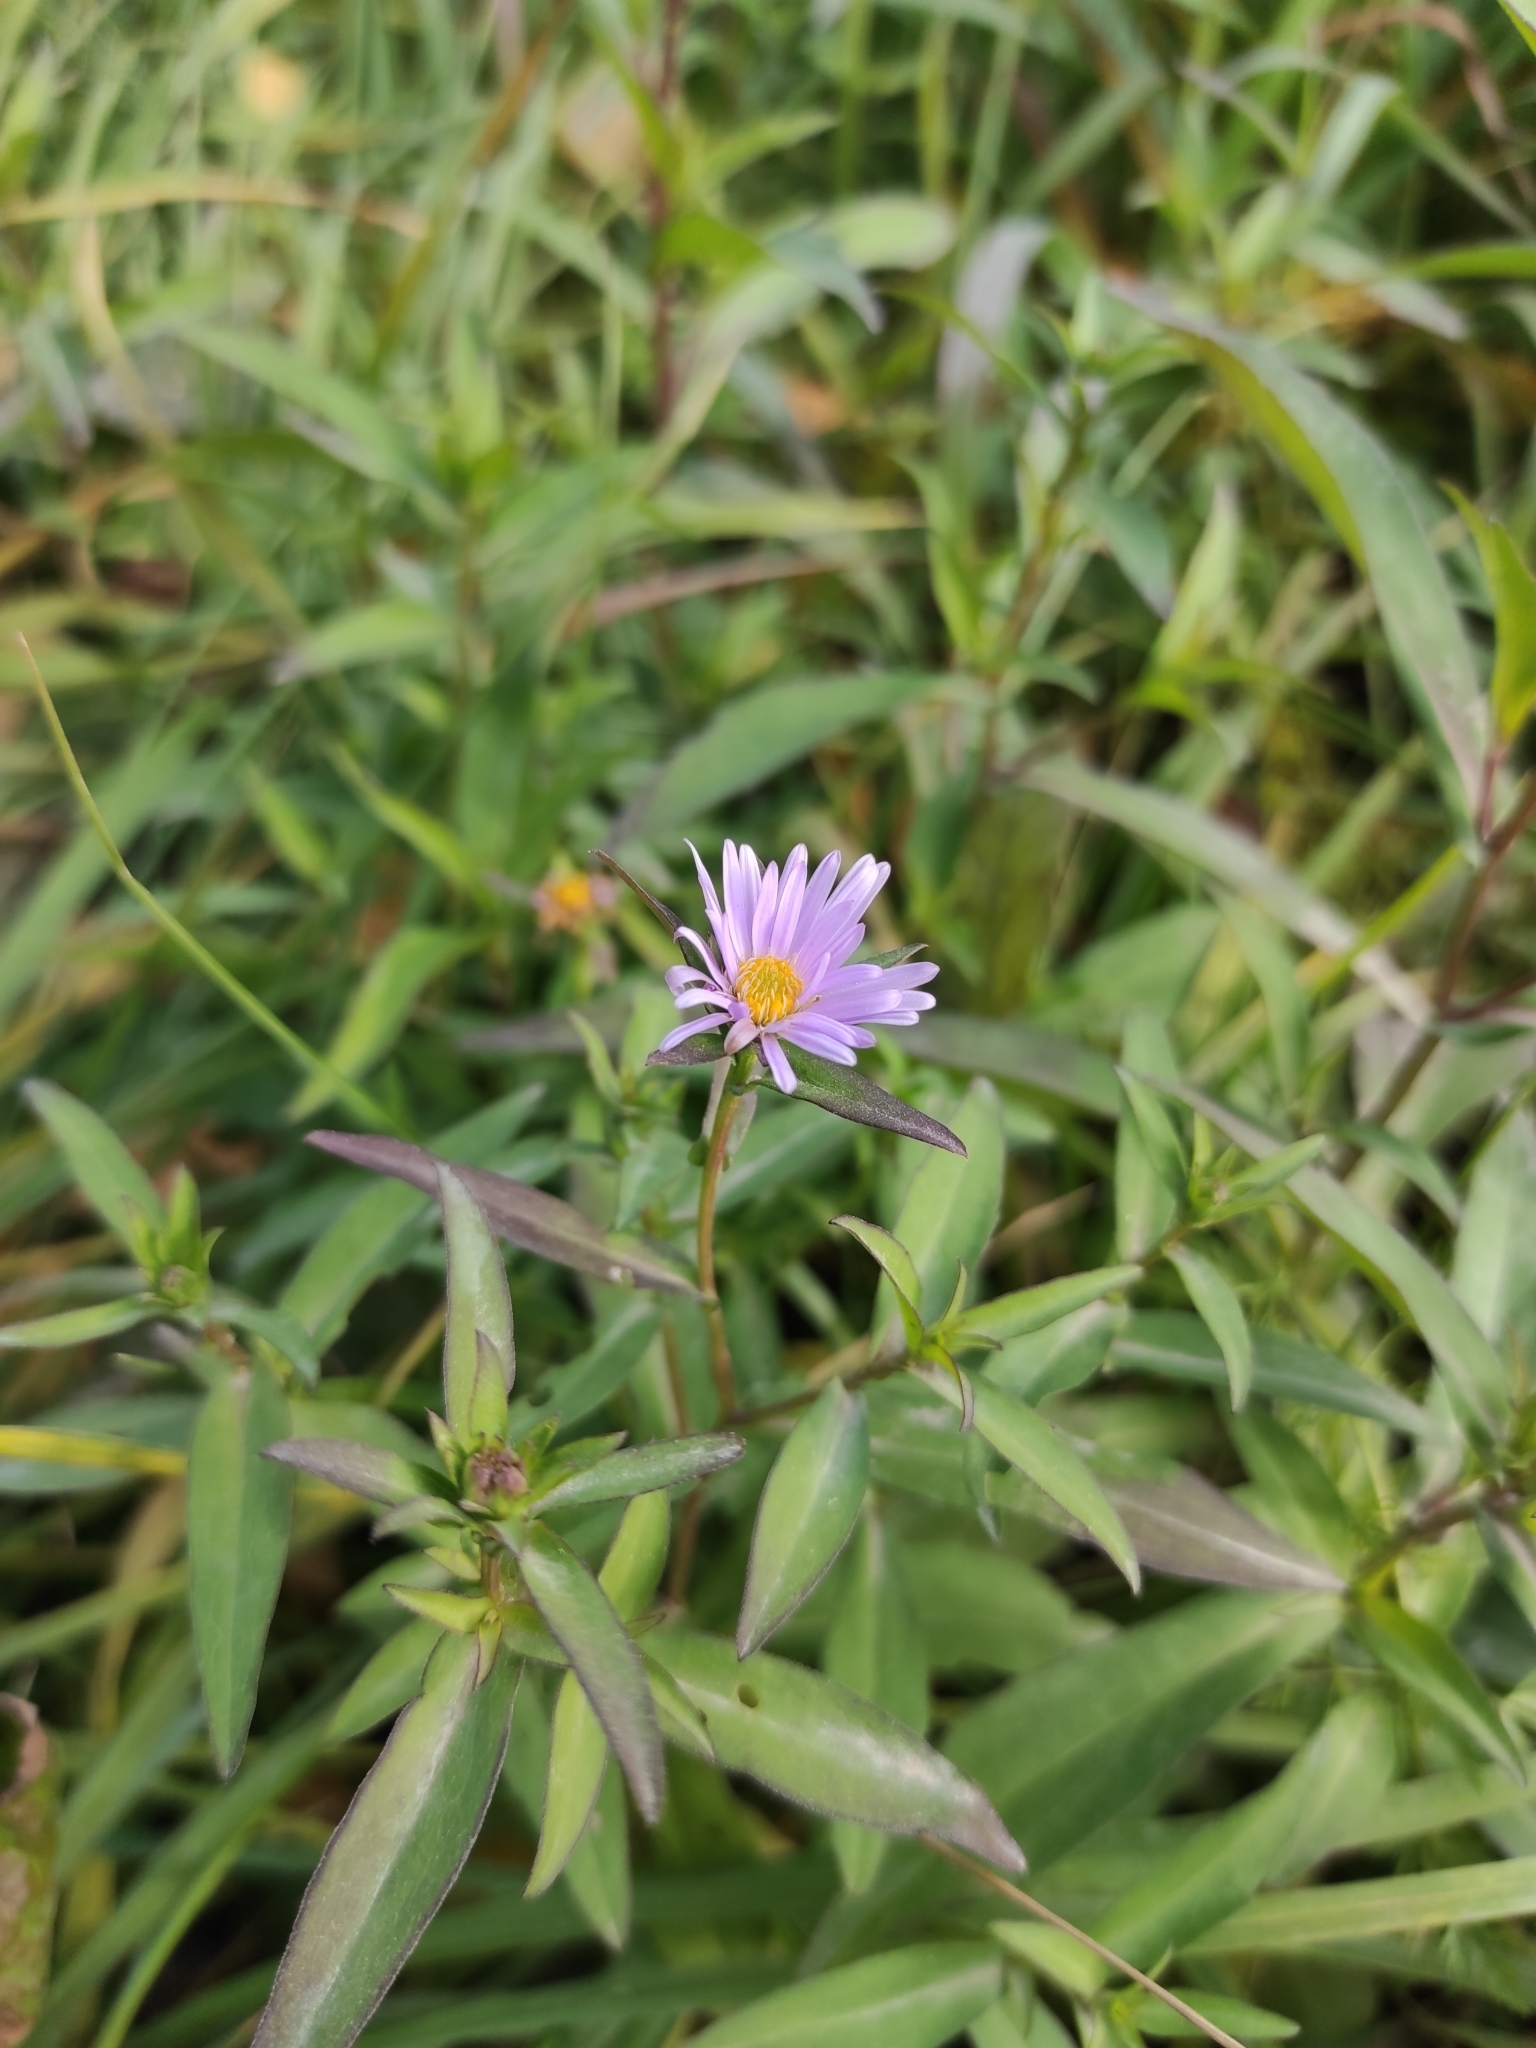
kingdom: Plantae
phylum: Tracheophyta
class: Magnoliopsida
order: Asterales
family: Asteraceae
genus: Symphyotrichum
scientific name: Symphyotrichum novi-belgii
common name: Michaelmas daisy
